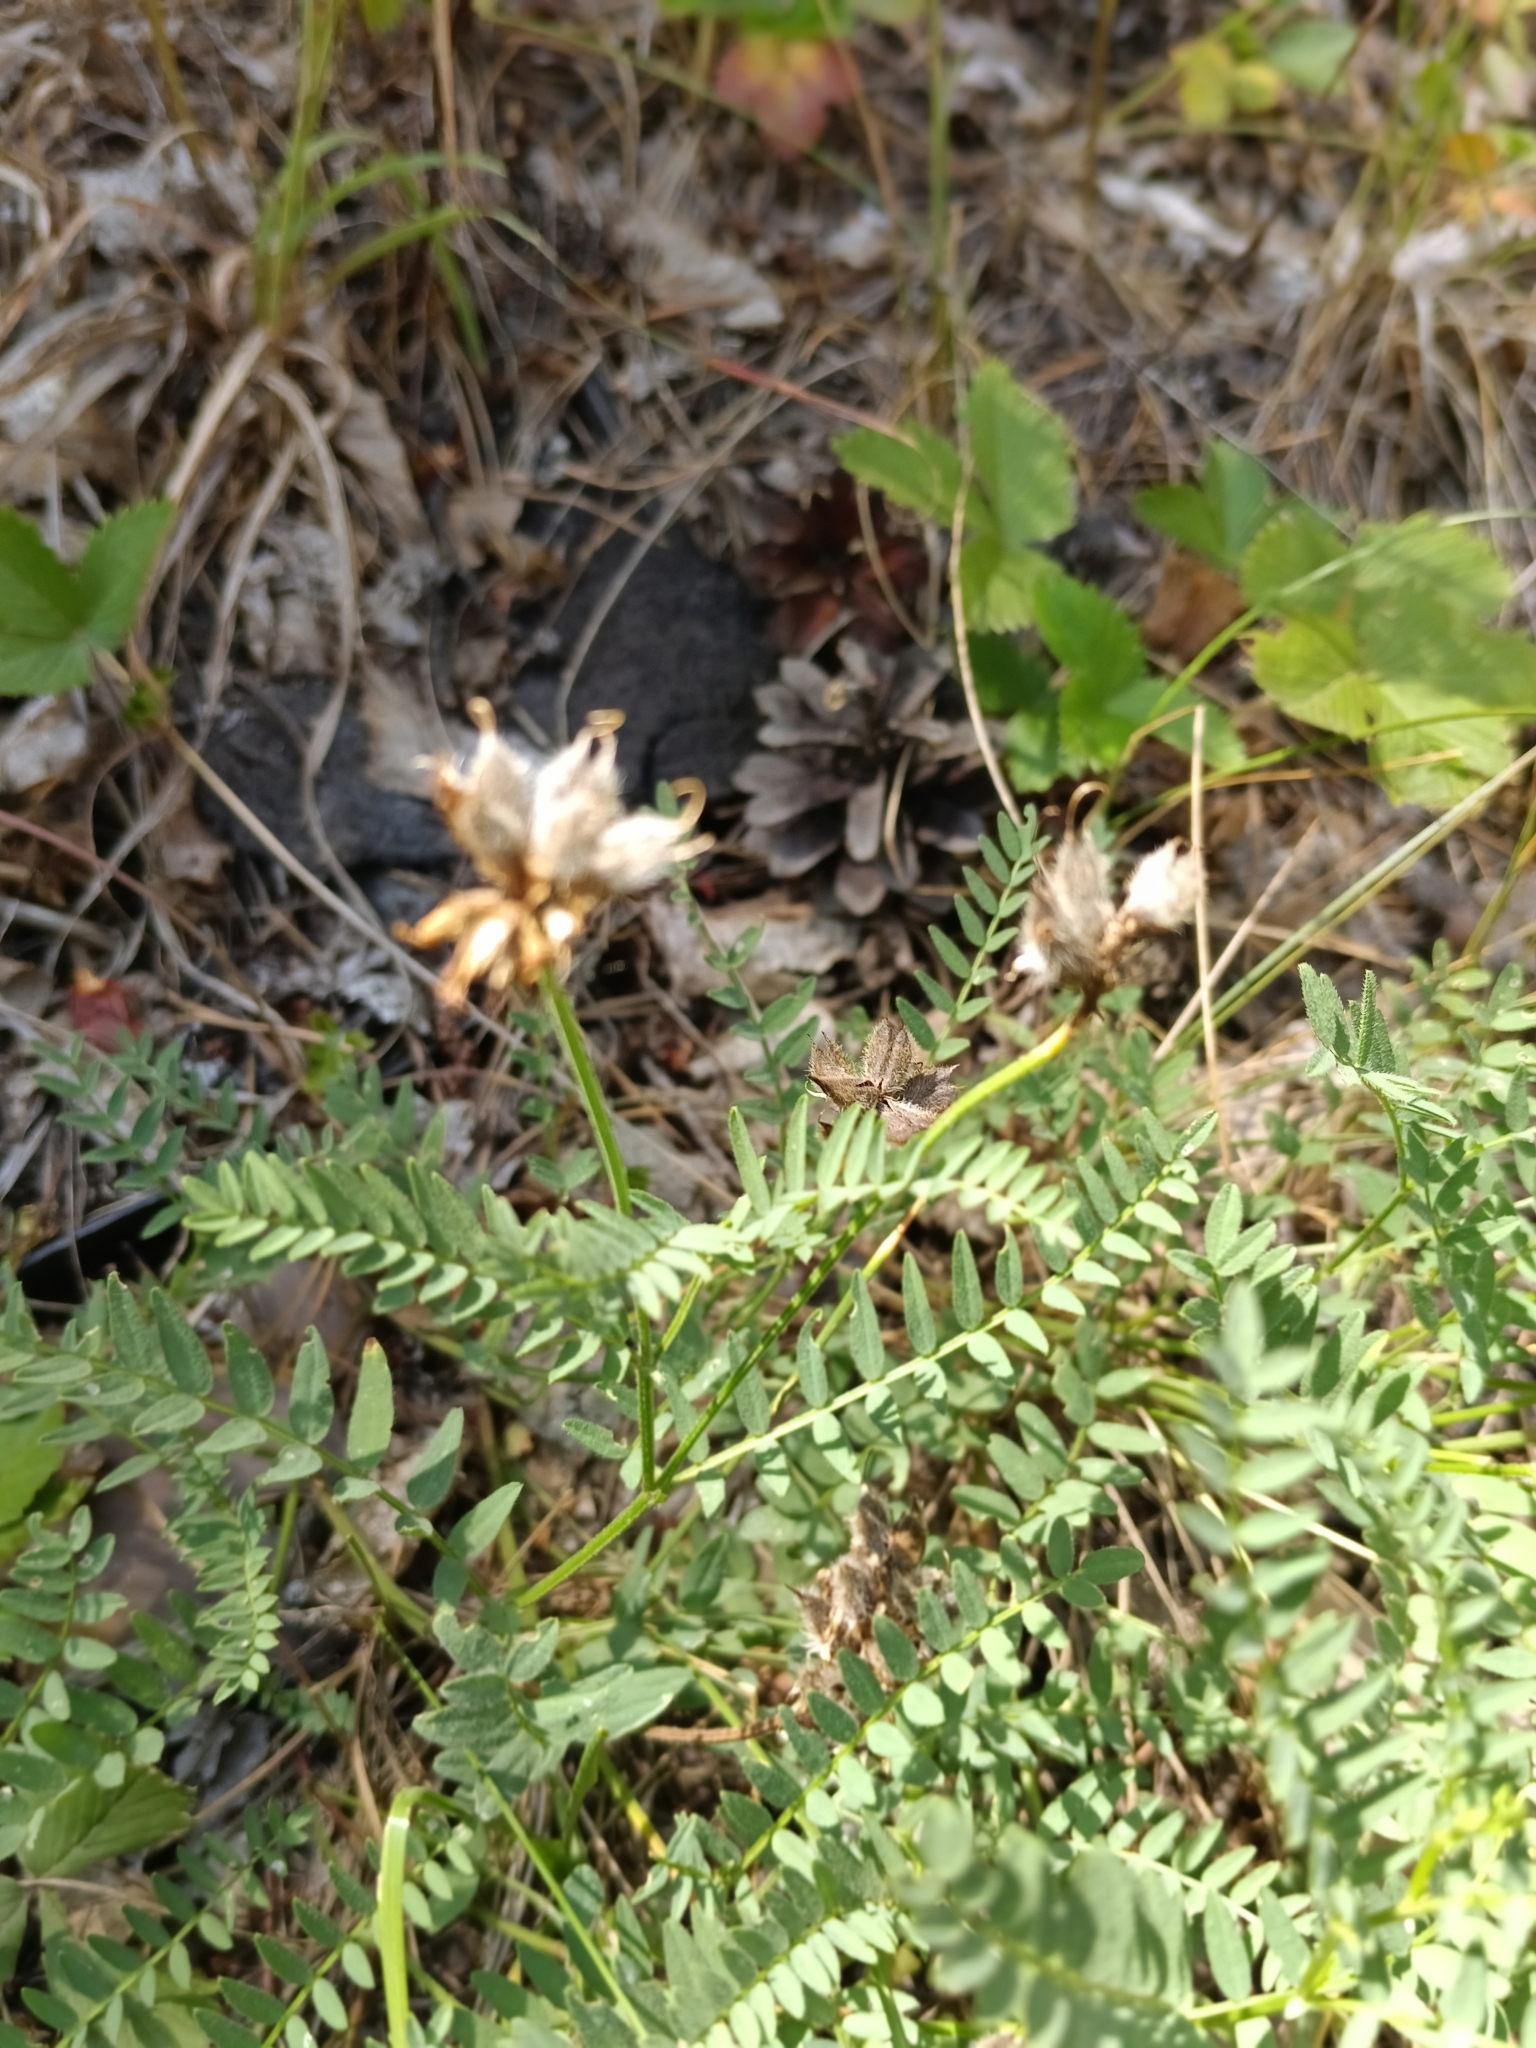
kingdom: Plantae
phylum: Tracheophyta
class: Magnoliopsida
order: Fabales
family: Fabaceae
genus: Astragalus
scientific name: Astragalus cicer
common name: Chick-pea milk-vetch
